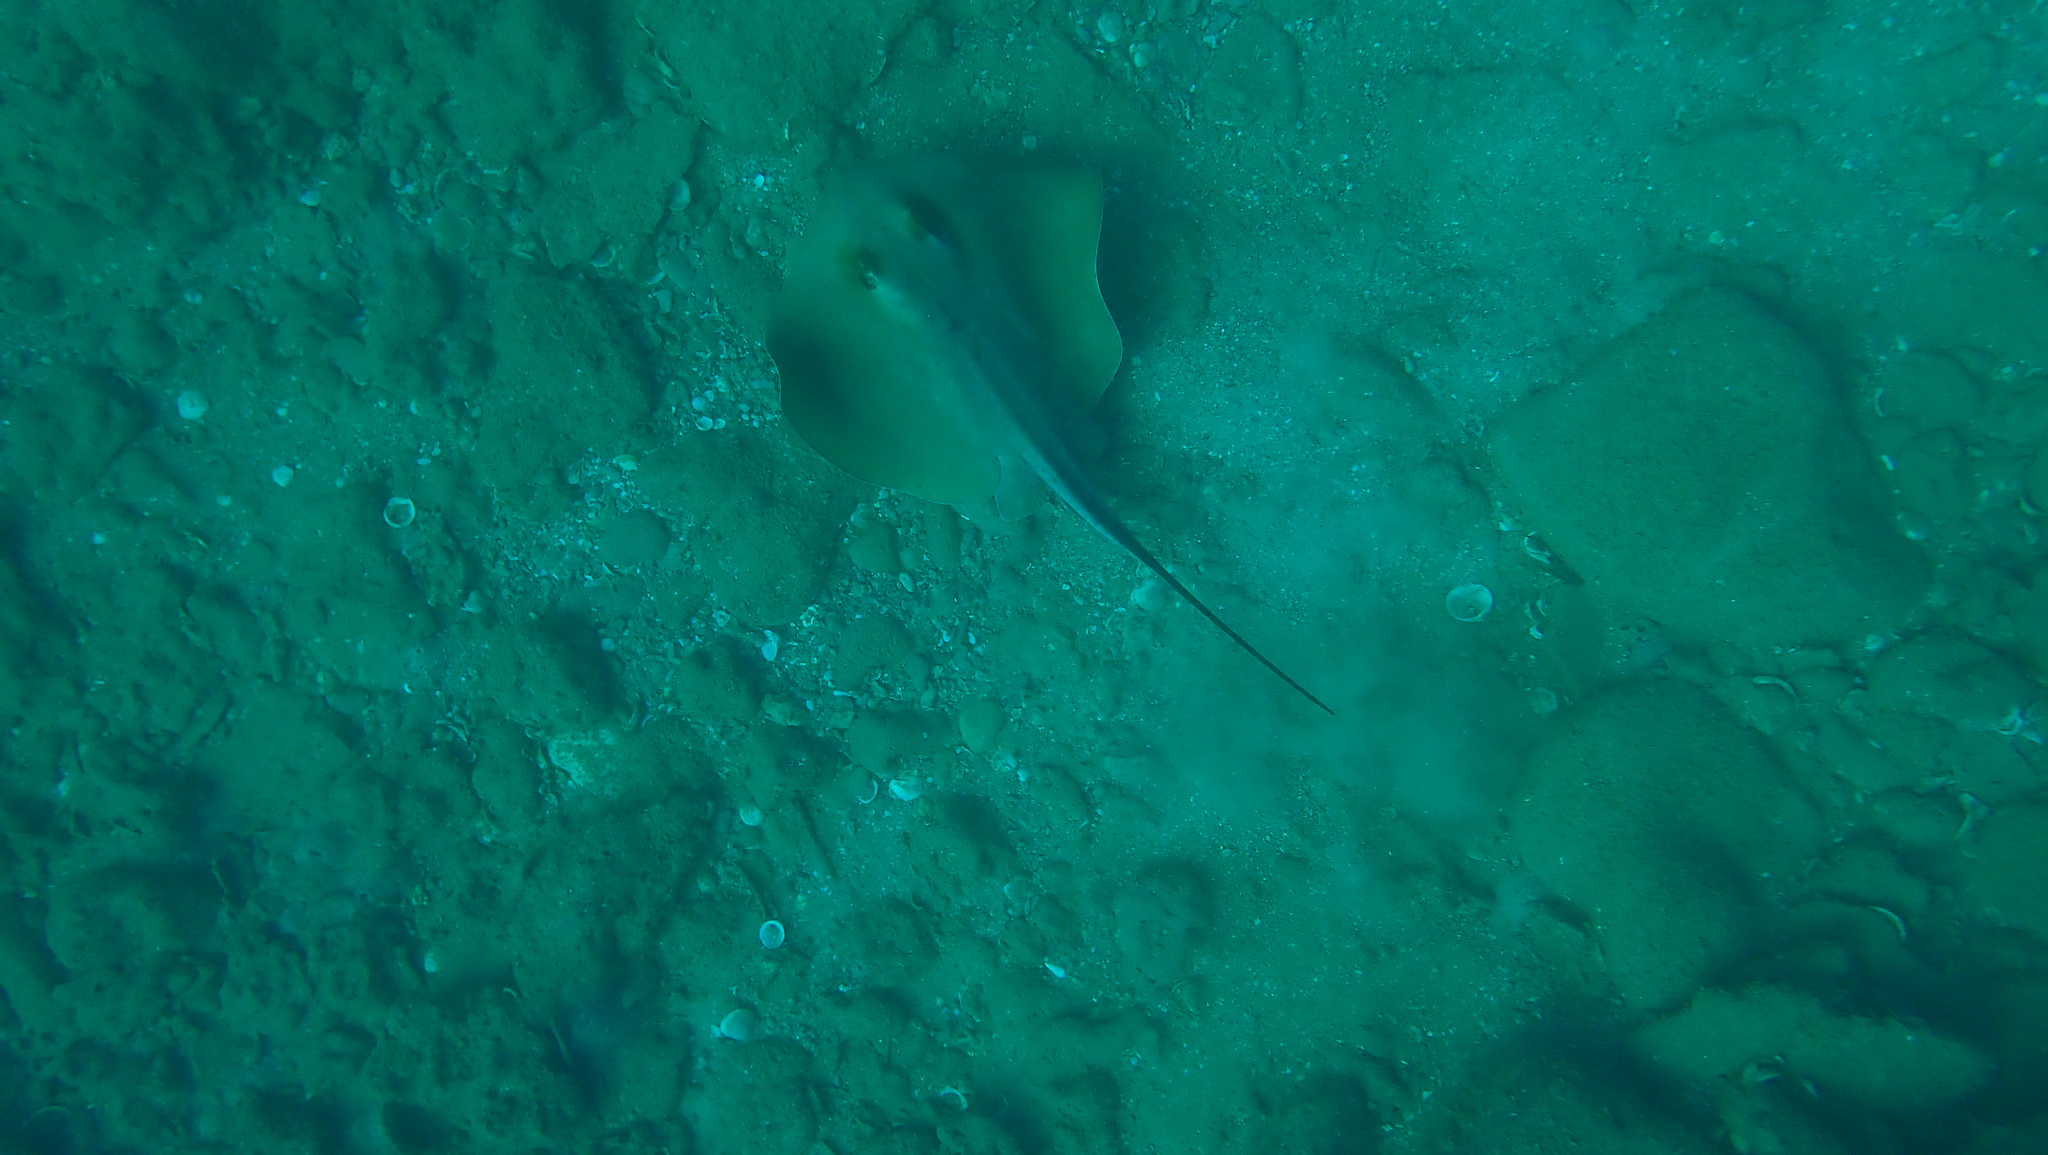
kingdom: Animalia
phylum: Chordata
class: Elasmobranchii
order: Myliobatiformes
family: Dasyatidae
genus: Dasyatis
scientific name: Dasyatis pastinaca
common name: Common stingray
